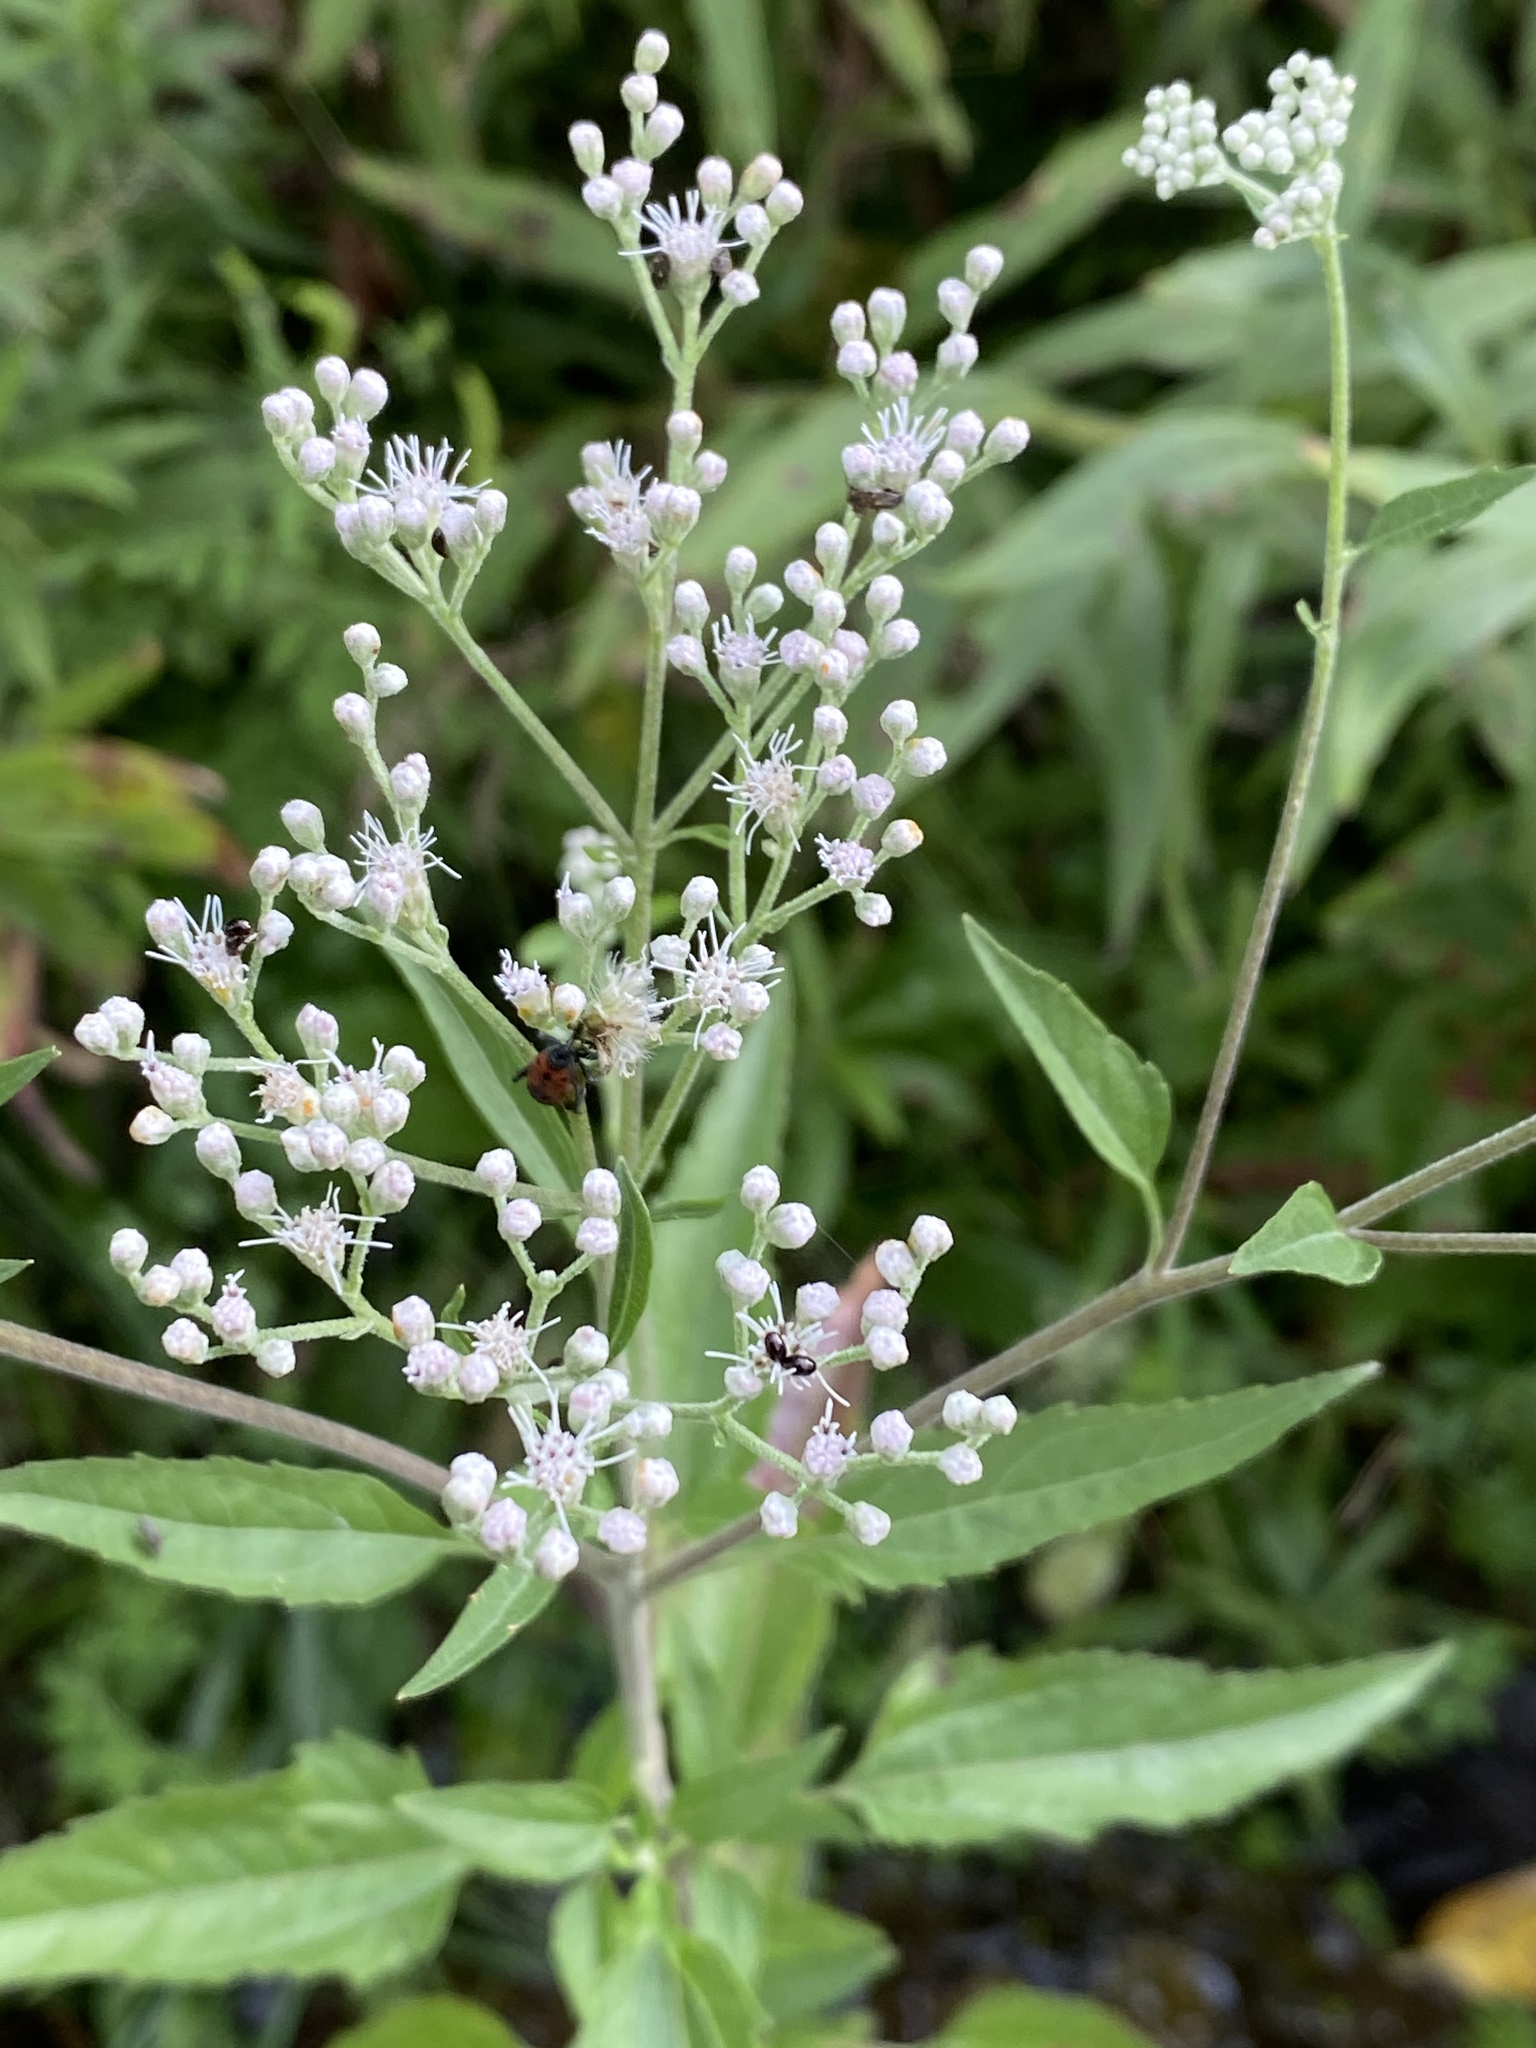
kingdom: Plantae
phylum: Tracheophyta
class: Magnoliopsida
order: Asterales
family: Asteraceae
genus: Eupatorium
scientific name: Eupatorium serotinum
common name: Late boneset
